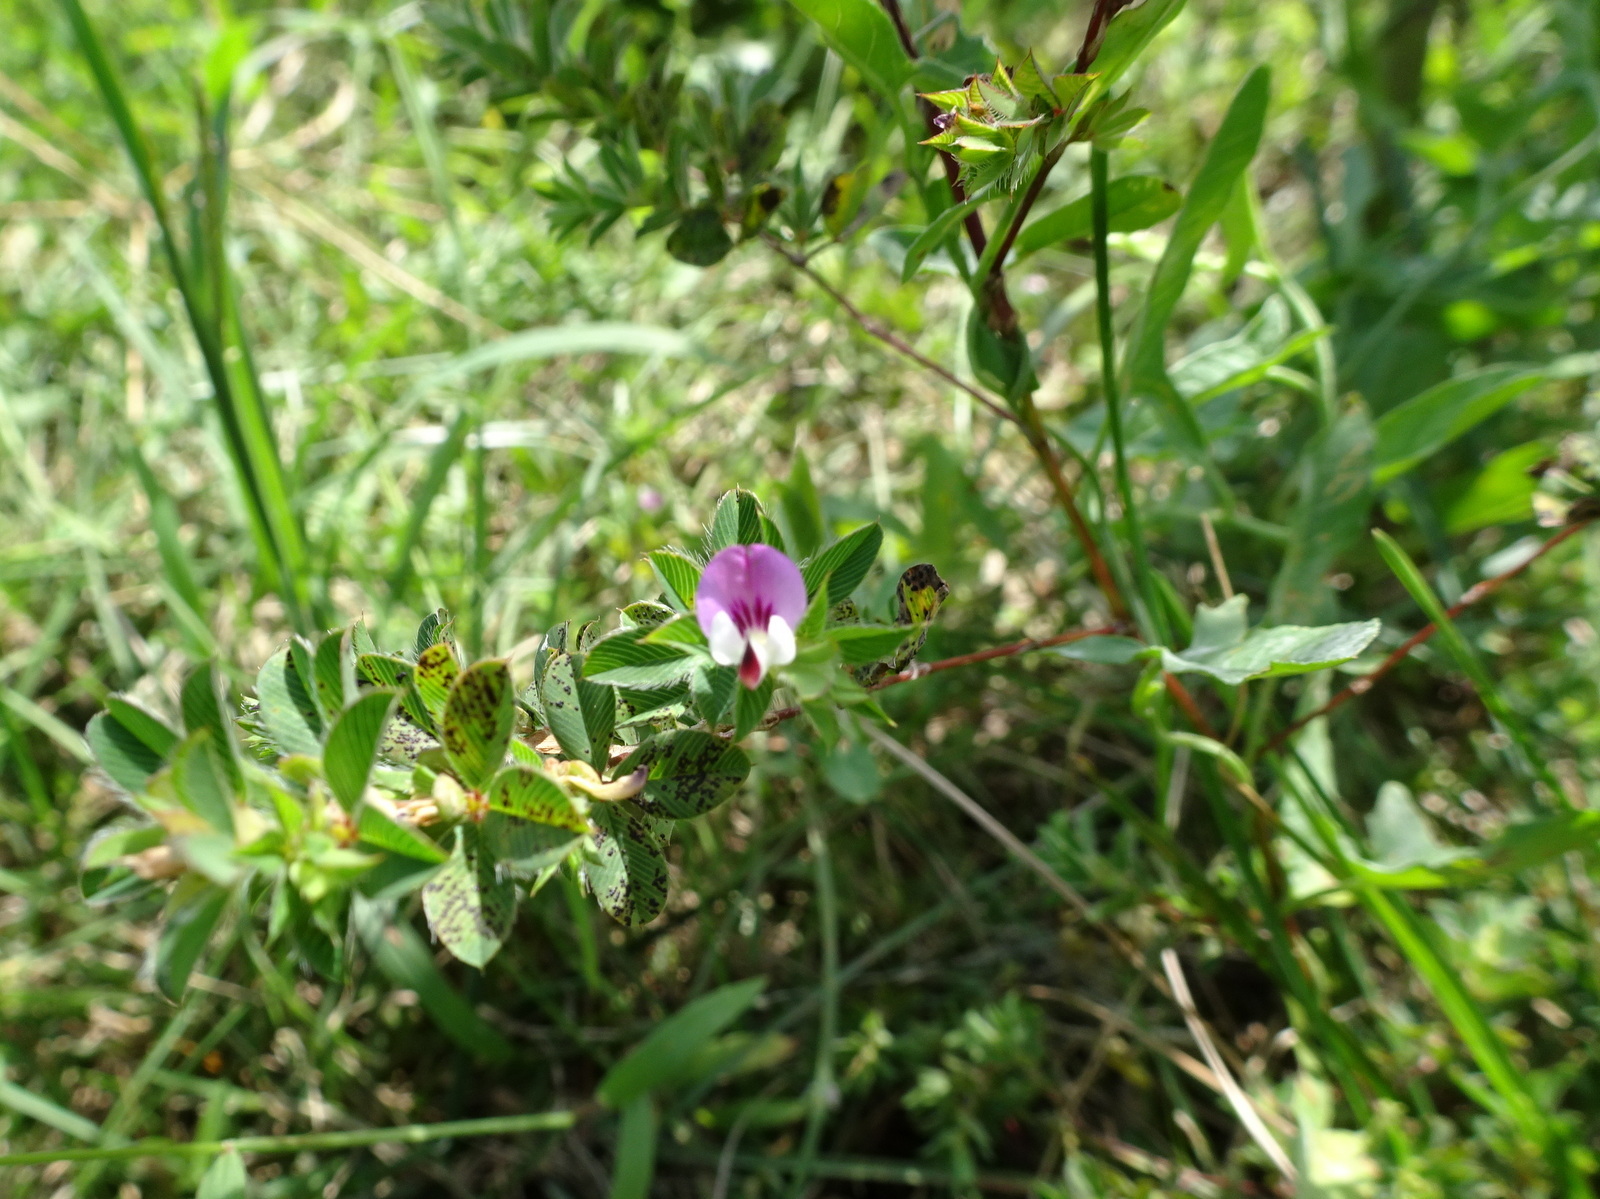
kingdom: Plantae
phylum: Tracheophyta
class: Magnoliopsida
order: Fabales
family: Fabaceae
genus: Kummerowia
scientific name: Kummerowia striata
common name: Japanese clover
